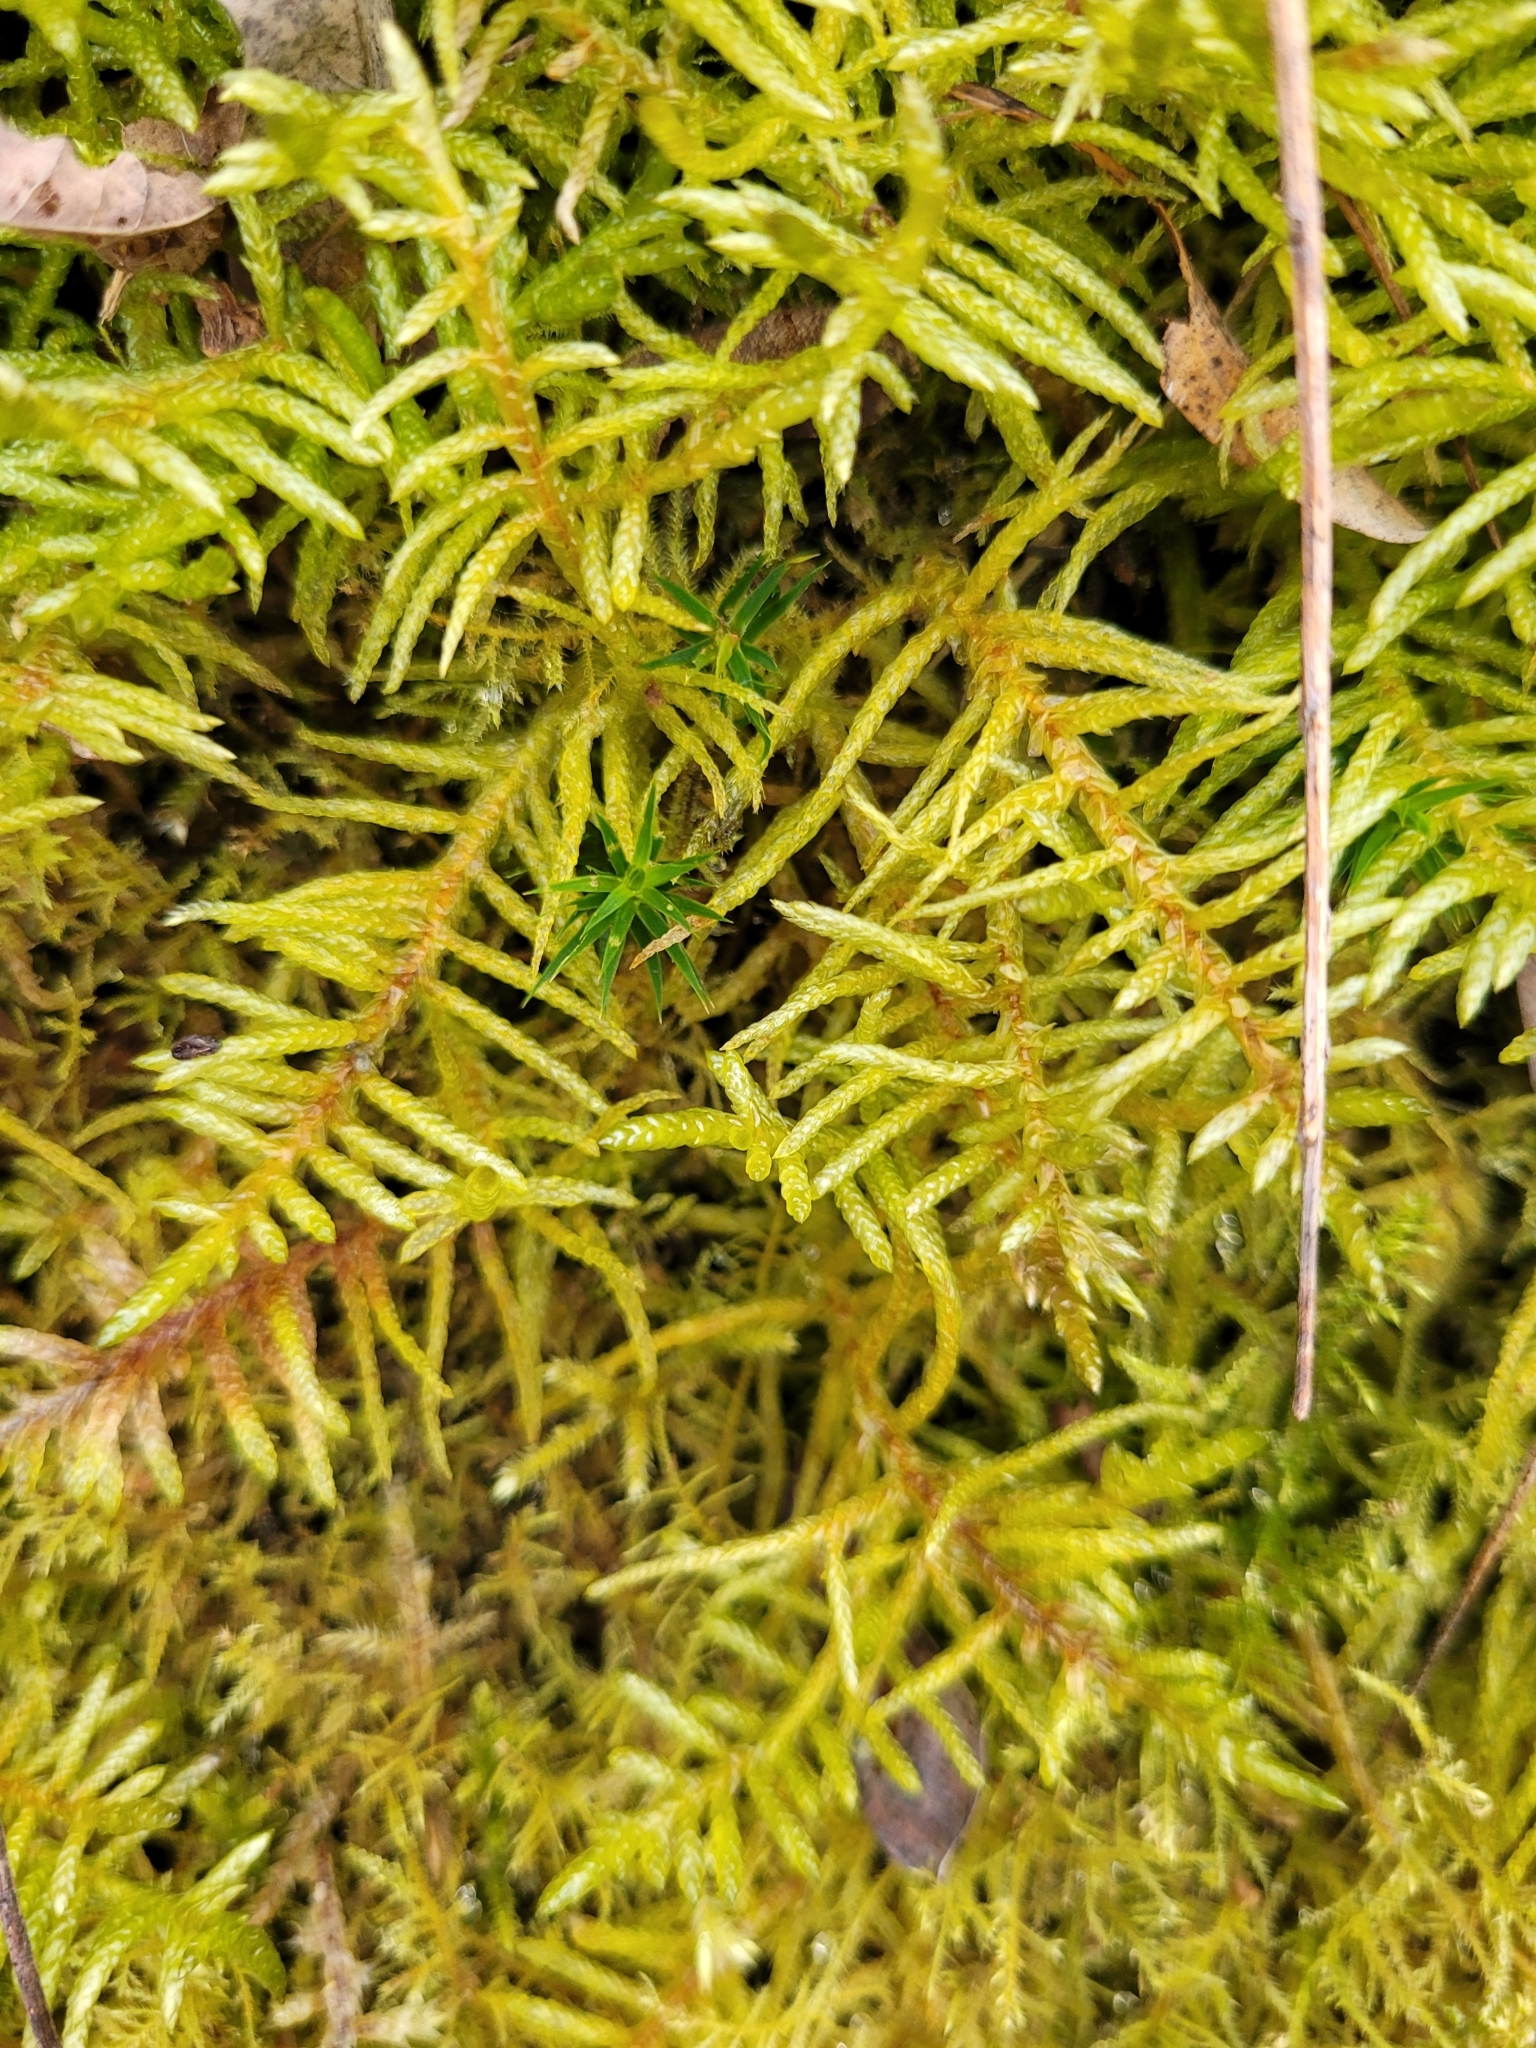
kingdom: Plantae
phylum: Bryophyta
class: Bryopsida
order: Hypnales
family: Brachytheciaceae
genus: Pseudoscleropodium
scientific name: Pseudoscleropodium purum
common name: Neat feather-moss
